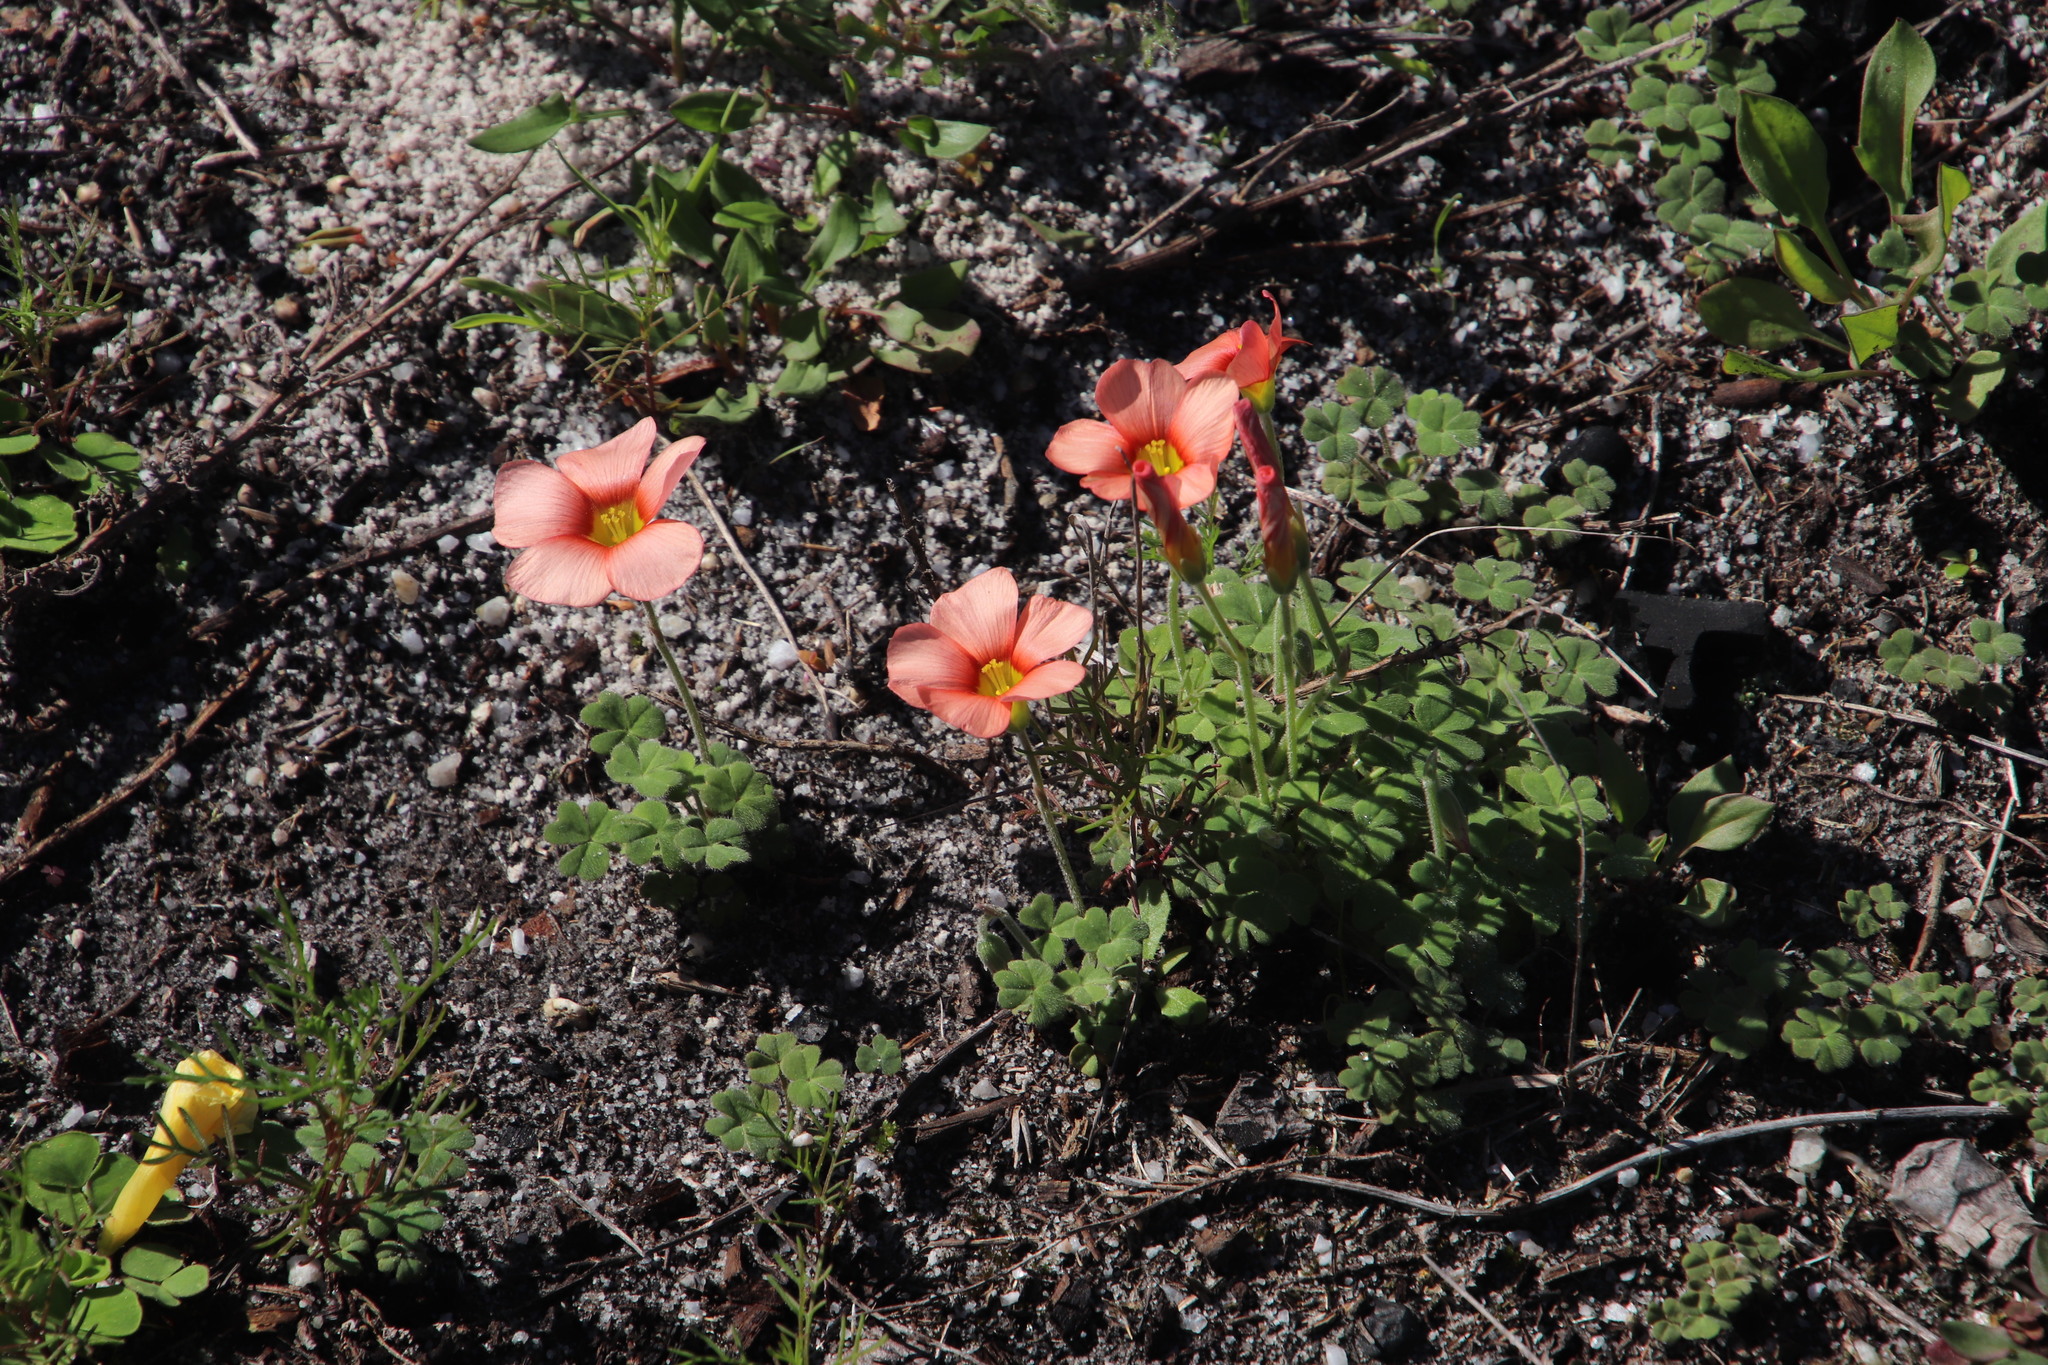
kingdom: Plantae
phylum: Tracheophyta
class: Magnoliopsida
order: Oxalidales
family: Oxalidaceae
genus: Oxalis
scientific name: Oxalis obtusa
